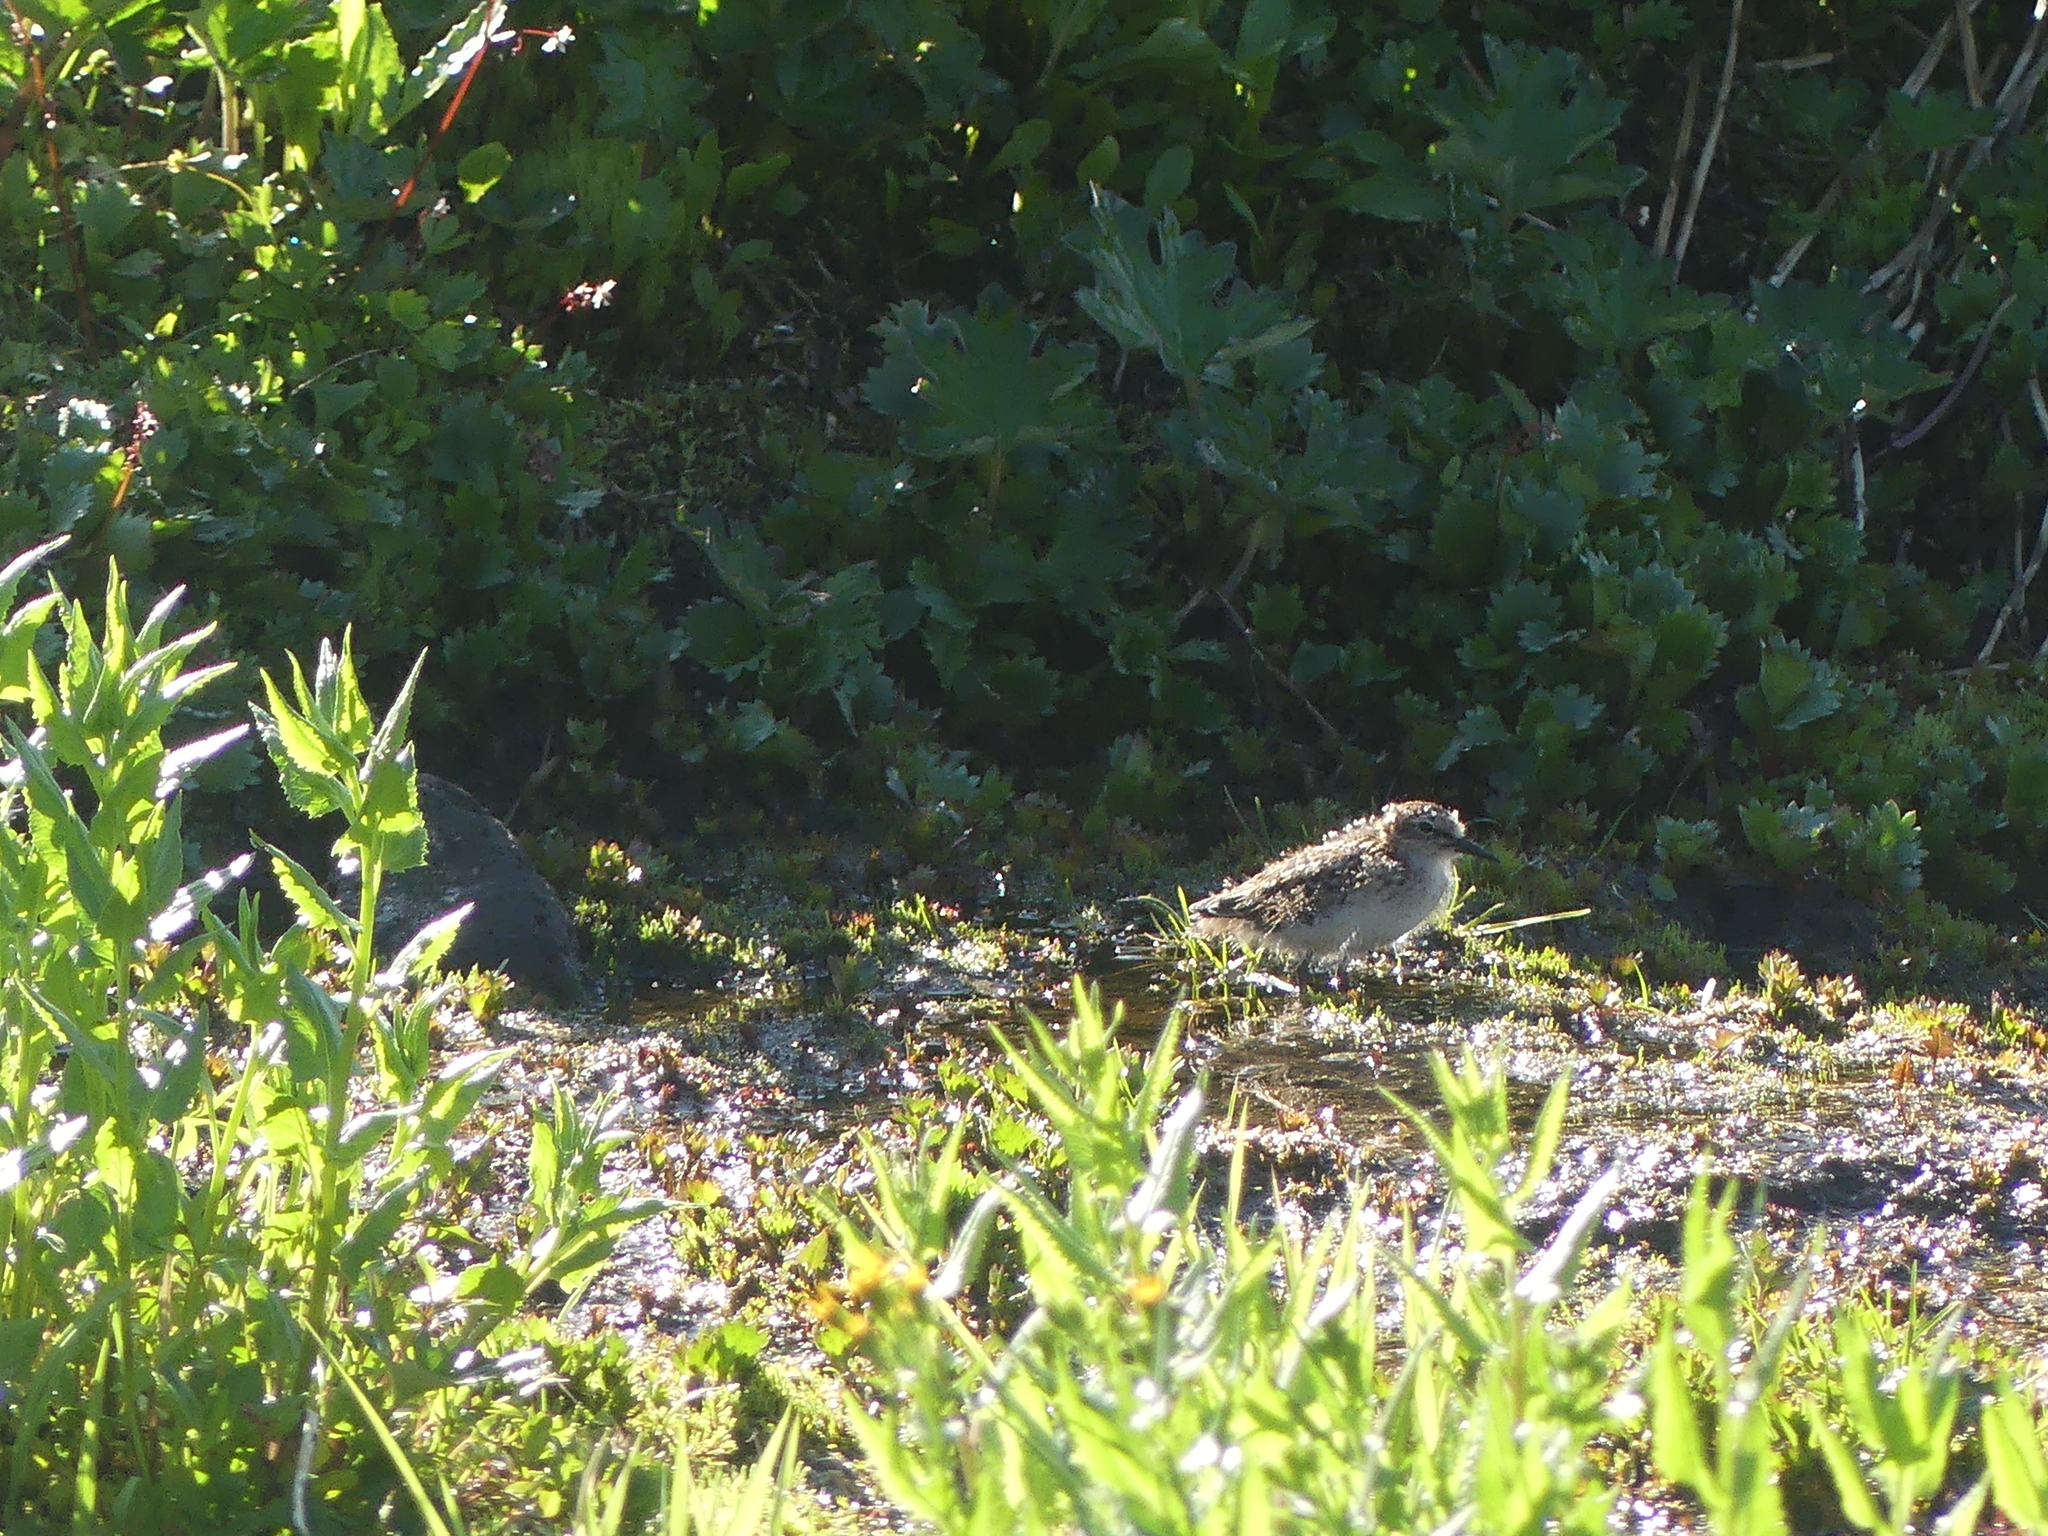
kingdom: Animalia
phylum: Chordata
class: Aves
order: Charadriiformes
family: Scolopacidae
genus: Actitis
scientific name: Actitis macularius
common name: Spotted sandpiper
